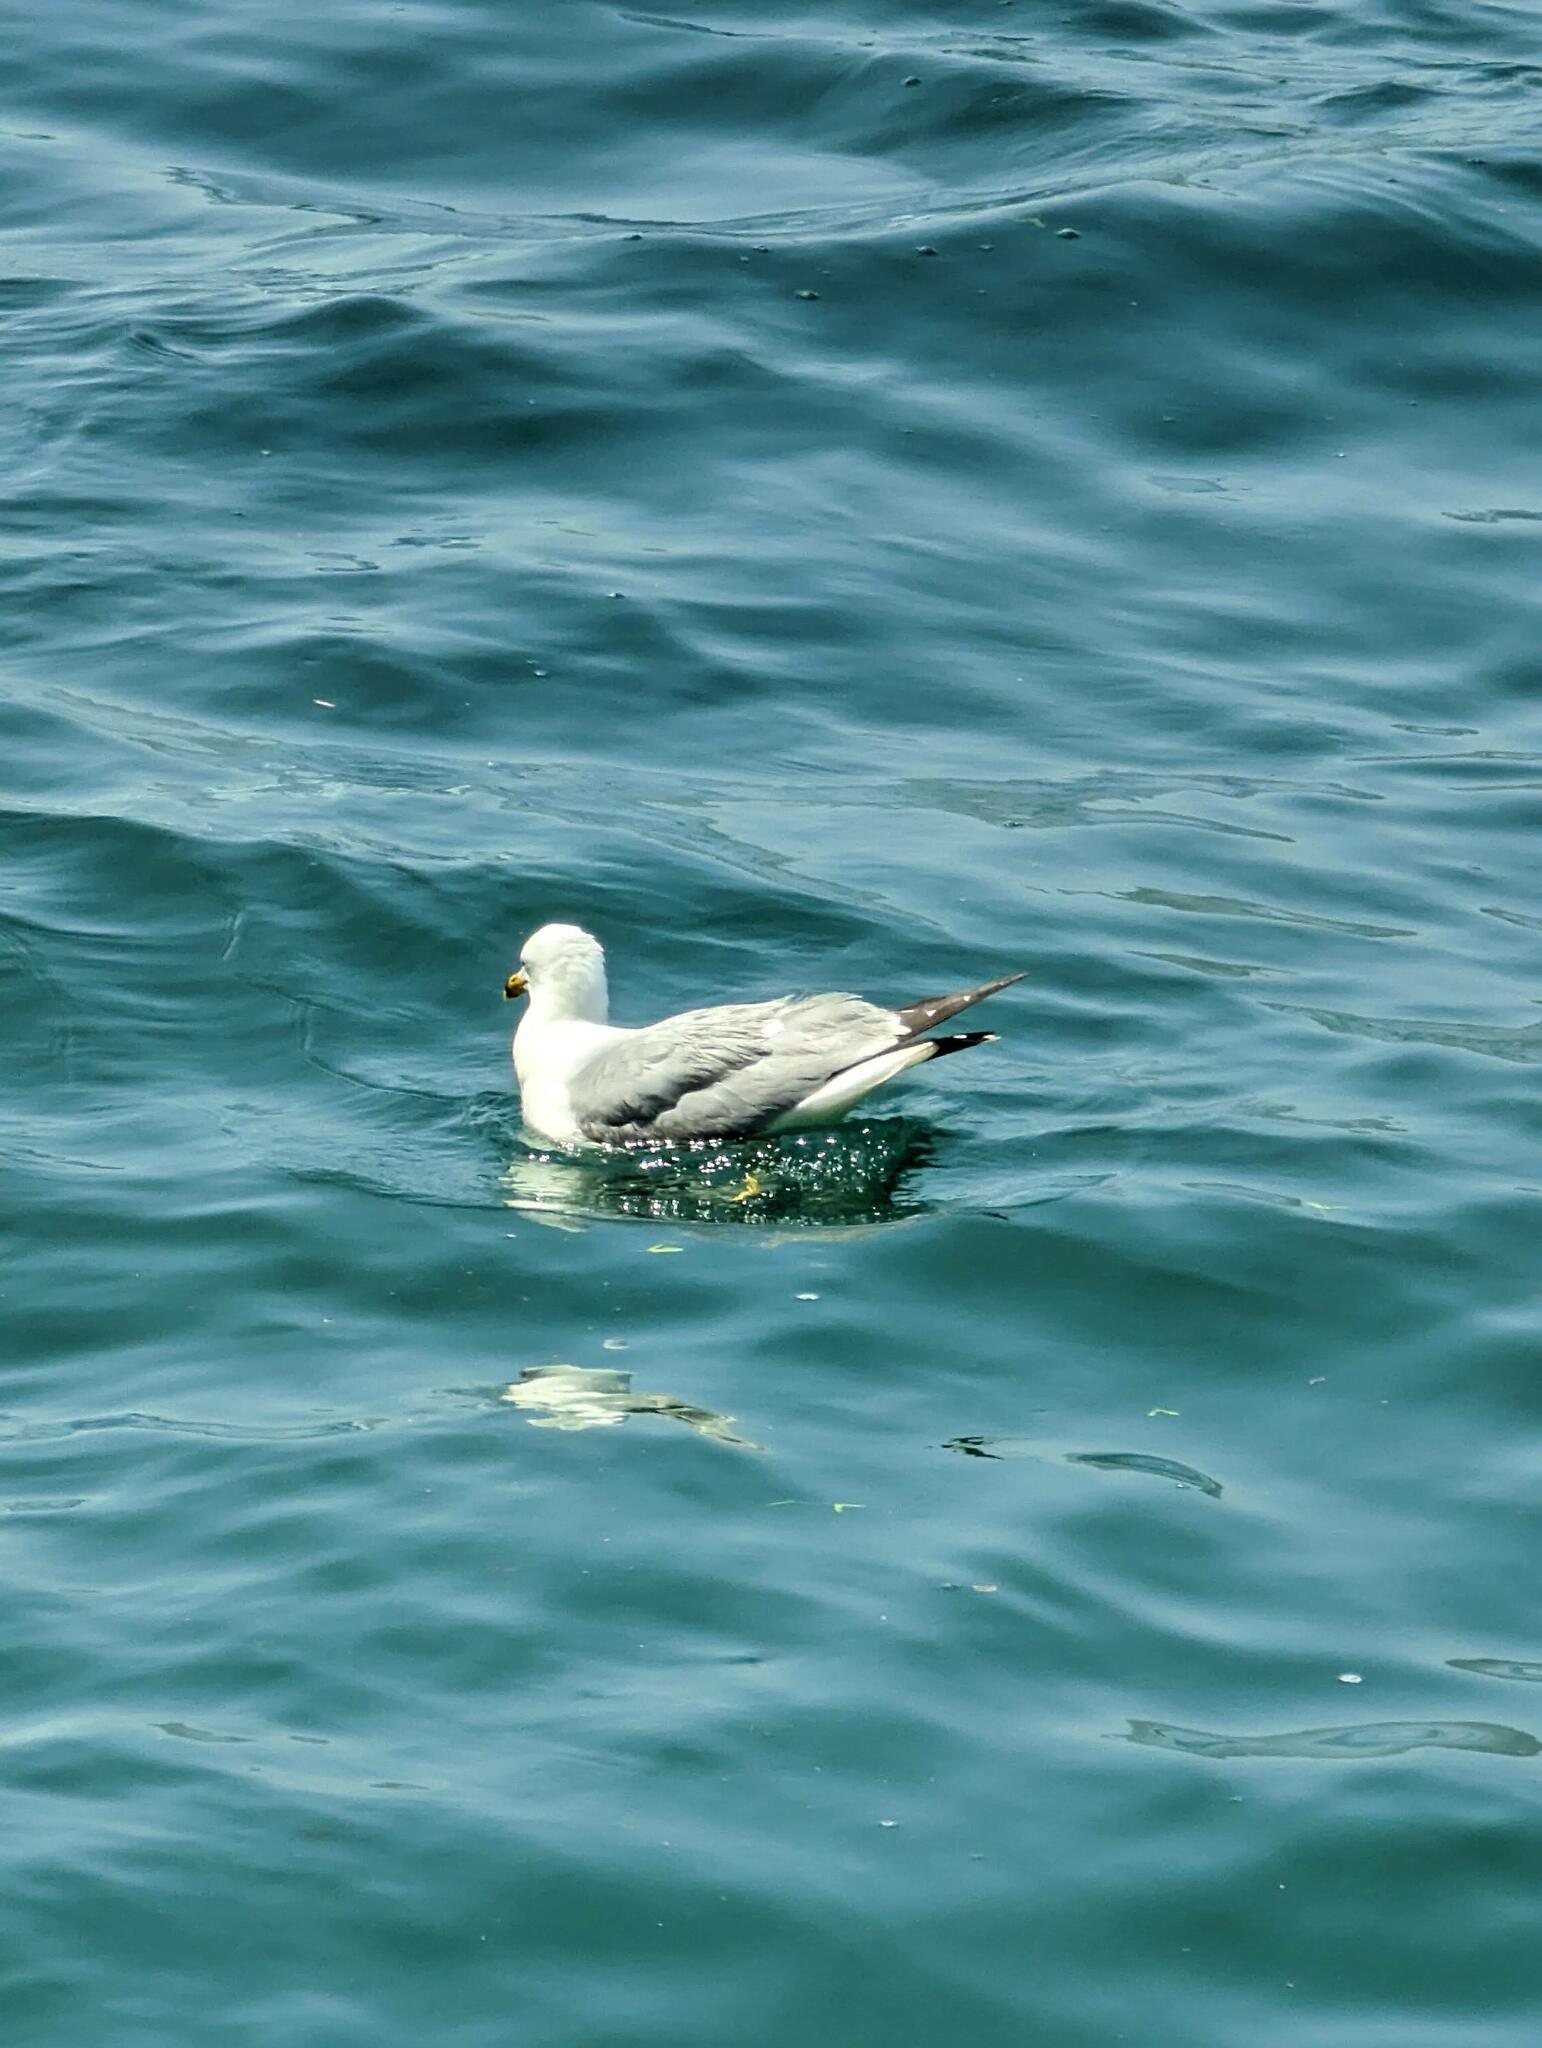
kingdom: Animalia
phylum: Chordata
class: Aves
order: Charadriiformes
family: Laridae
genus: Larus
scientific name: Larus delawarensis
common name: Ring-billed gull
